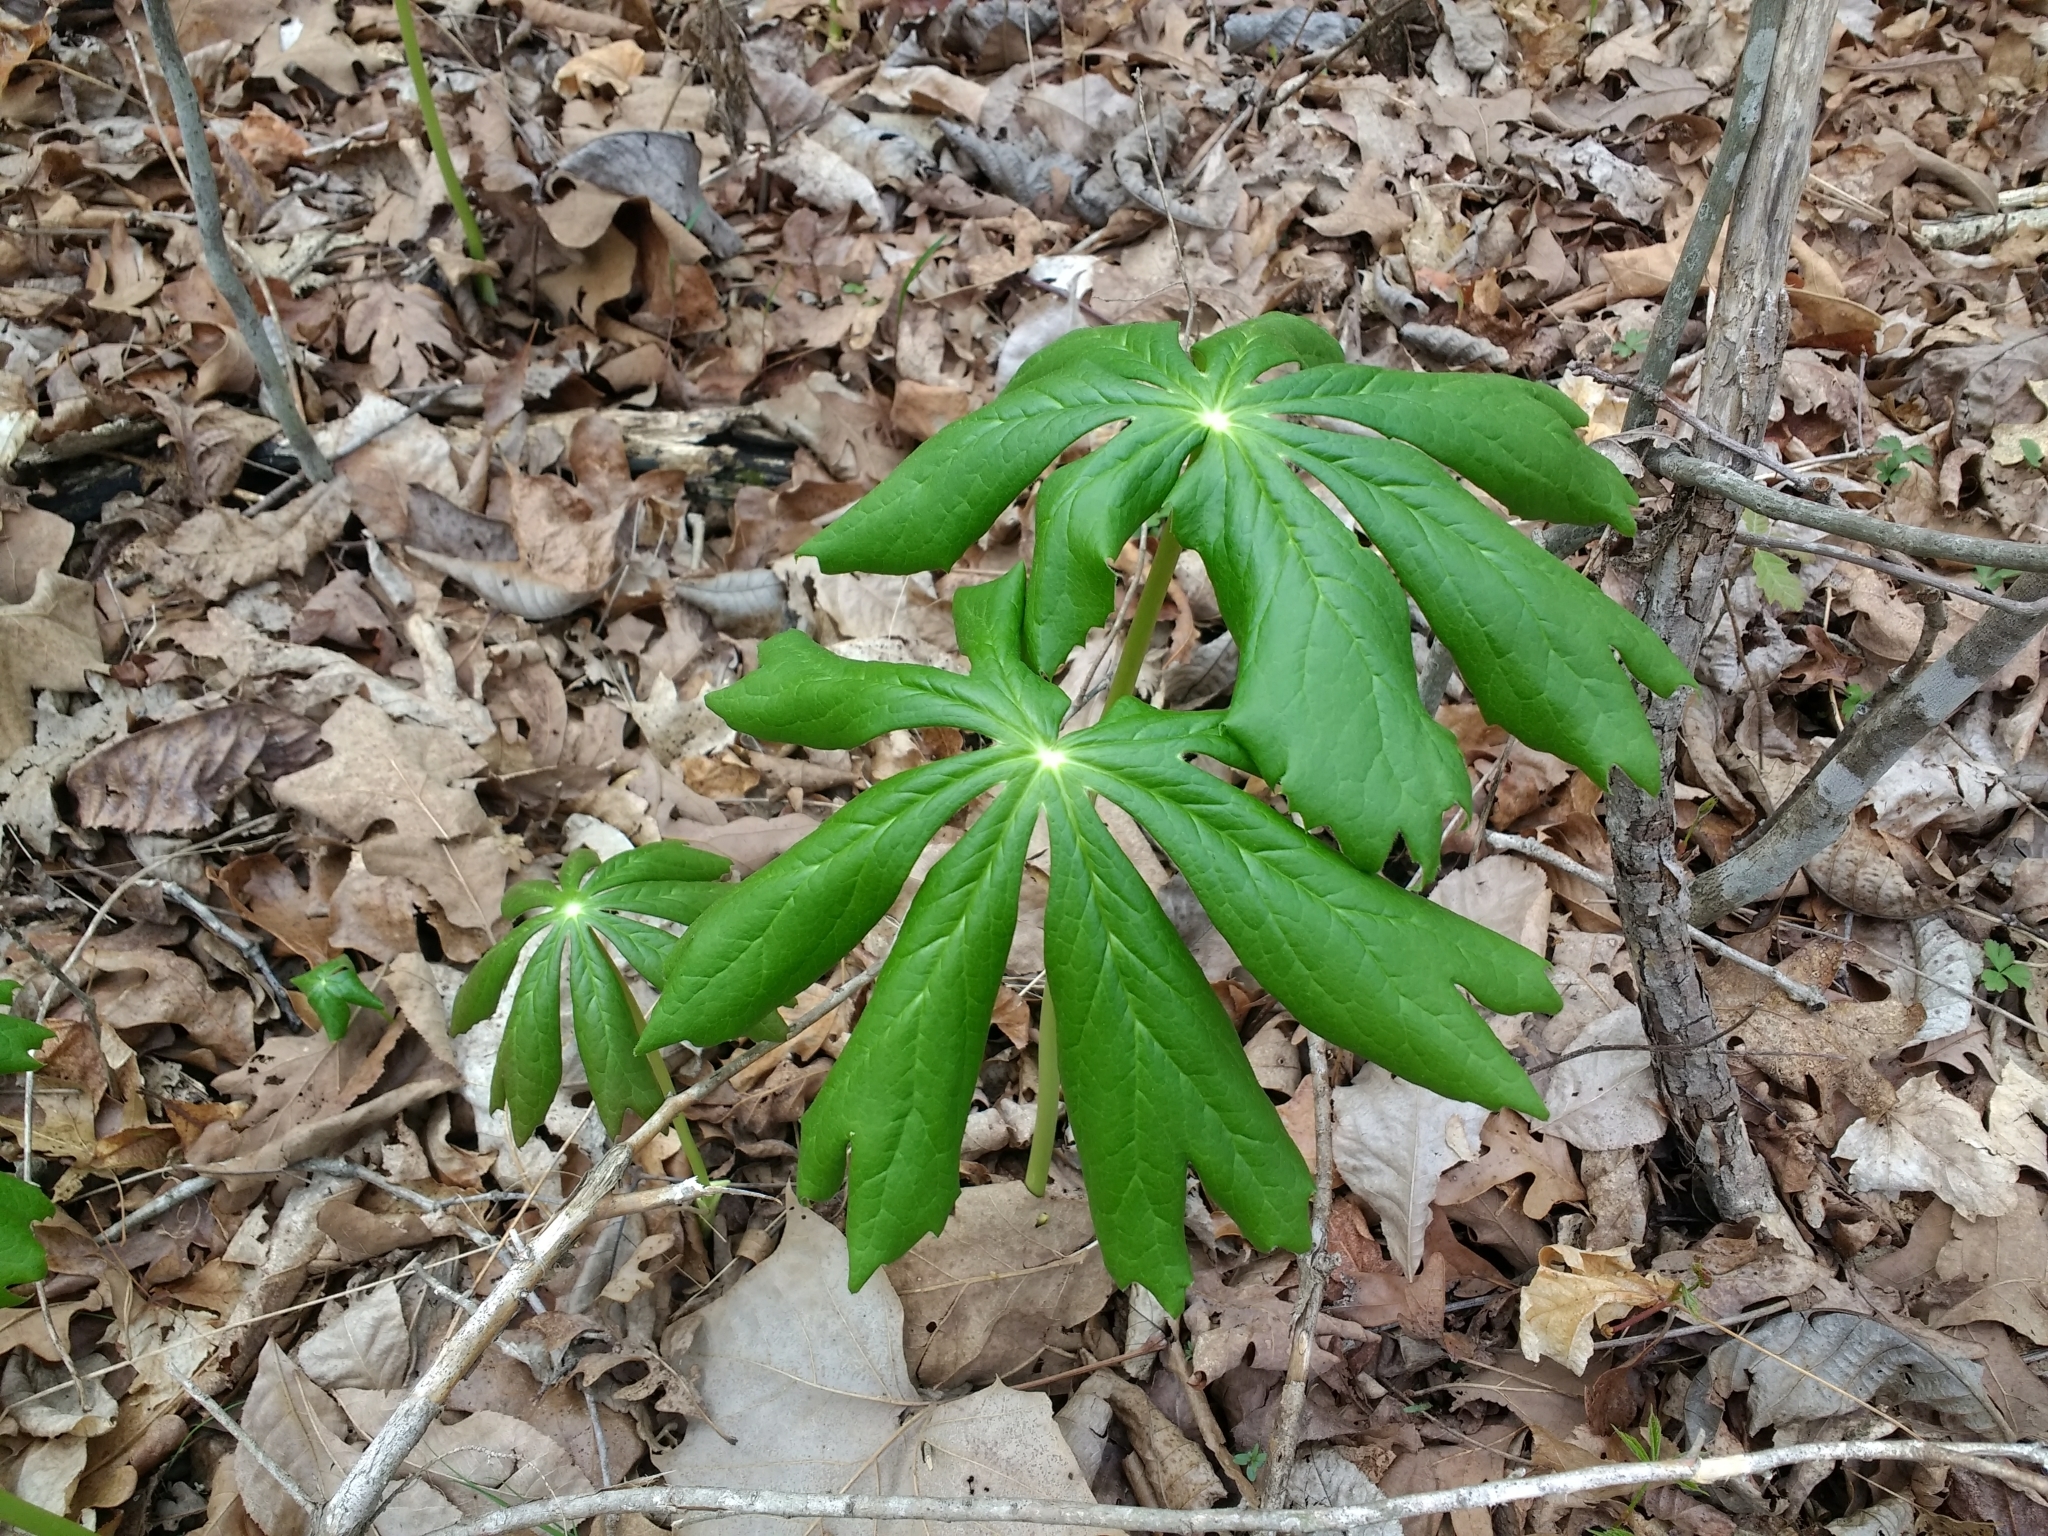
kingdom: Plantae
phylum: Tracheophyta
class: Magnoliopsida
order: Ranunculales
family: Berberidaceae
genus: Podophyllum
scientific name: Podophyllum peltatum
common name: Wild mandrake
